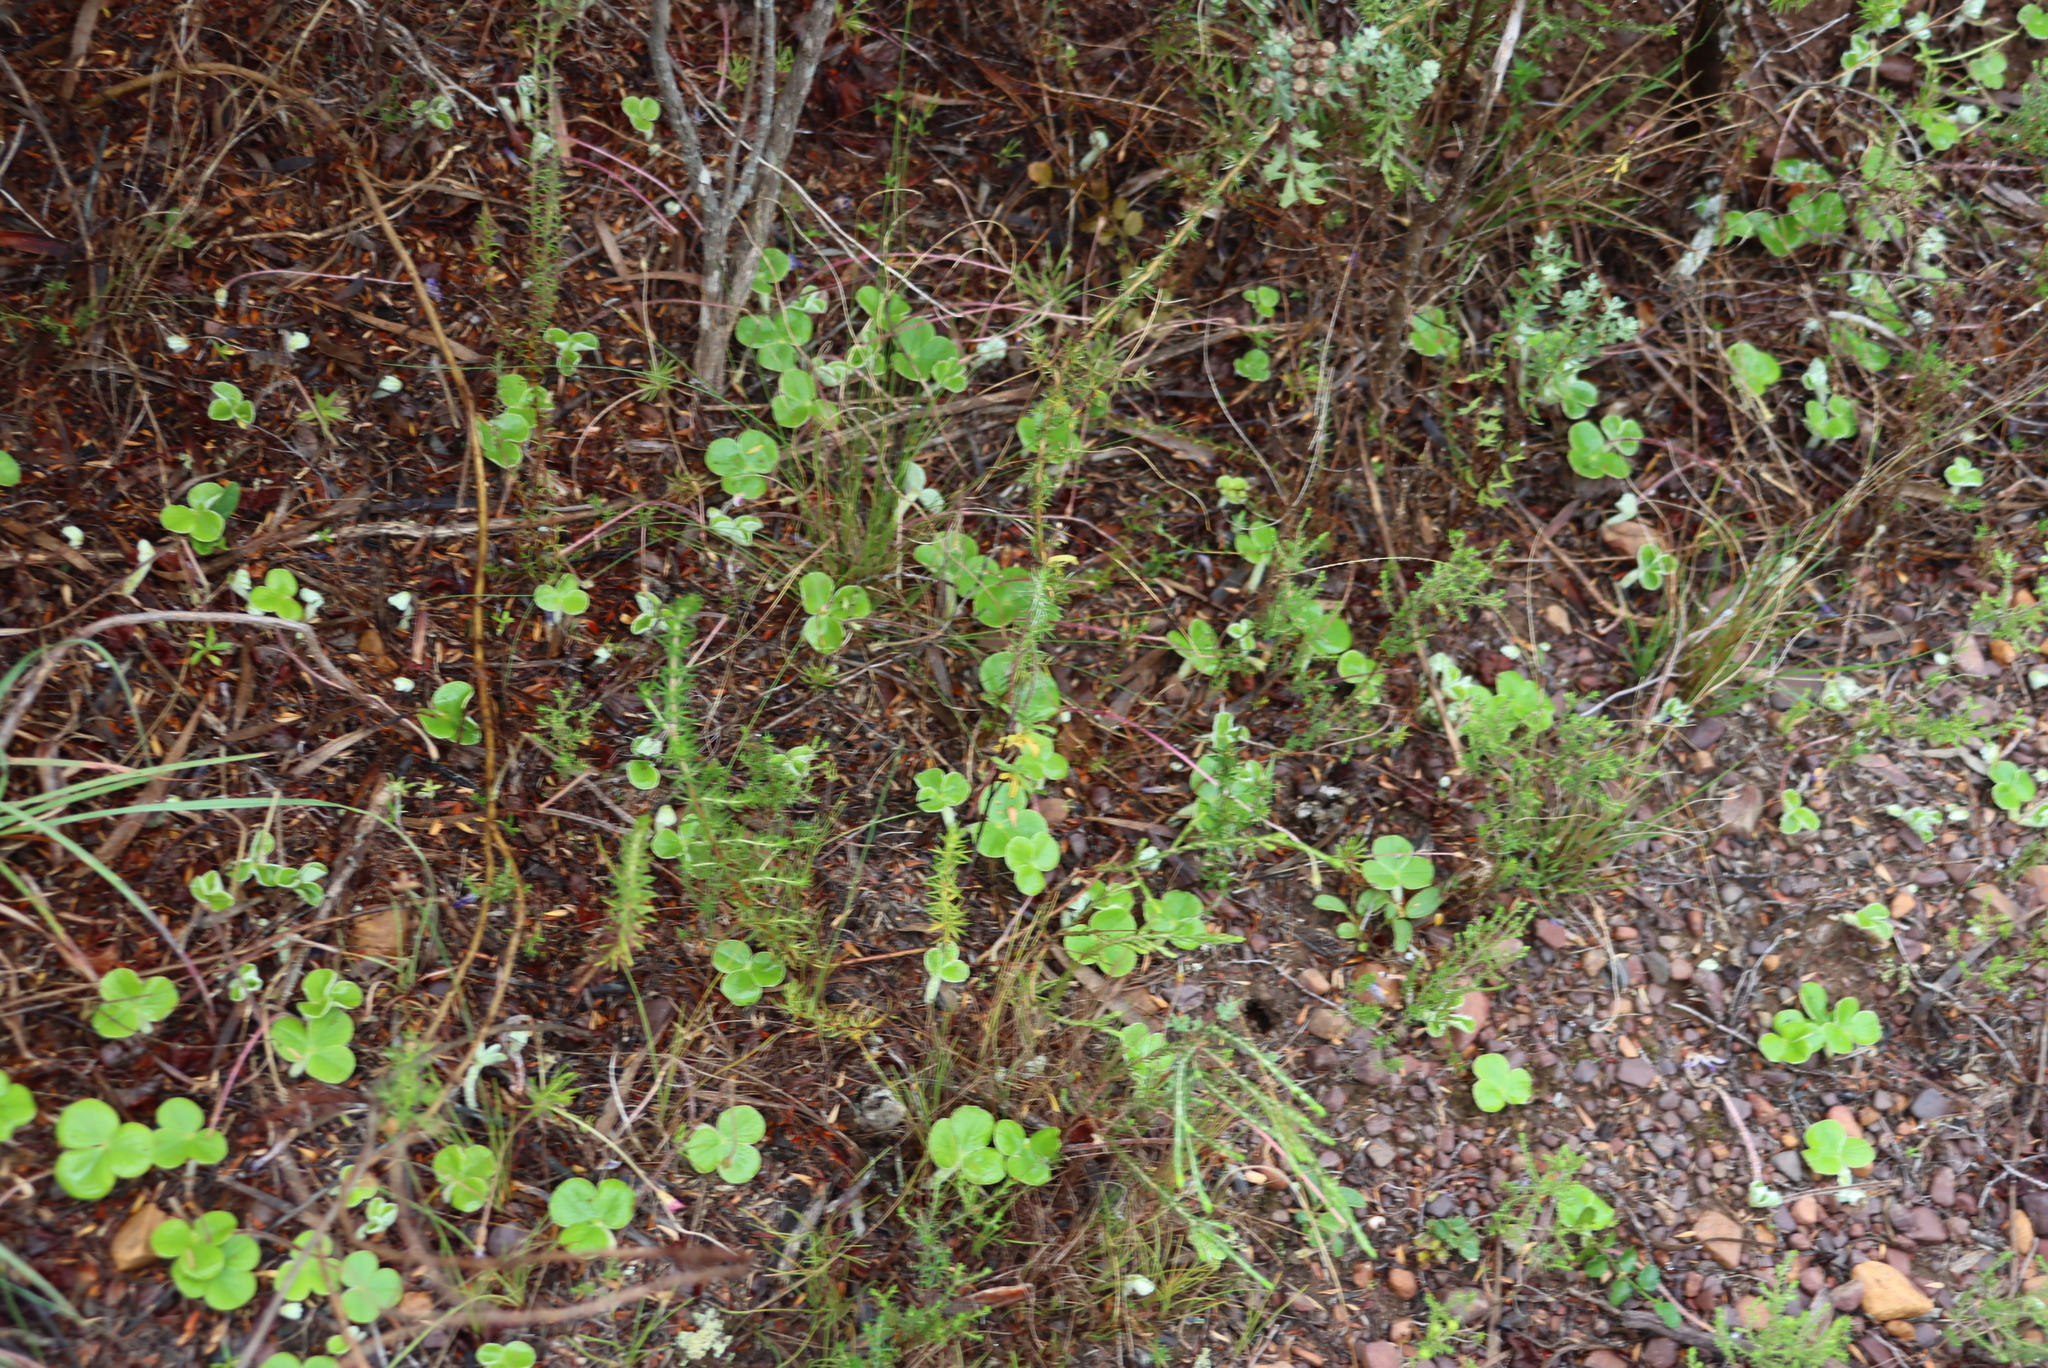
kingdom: Plantae
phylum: Tracheophyta
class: Magnoliopsida
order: Oxalidales
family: Oxalidaceae
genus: Oxalis
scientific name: Oxalis truncatula
